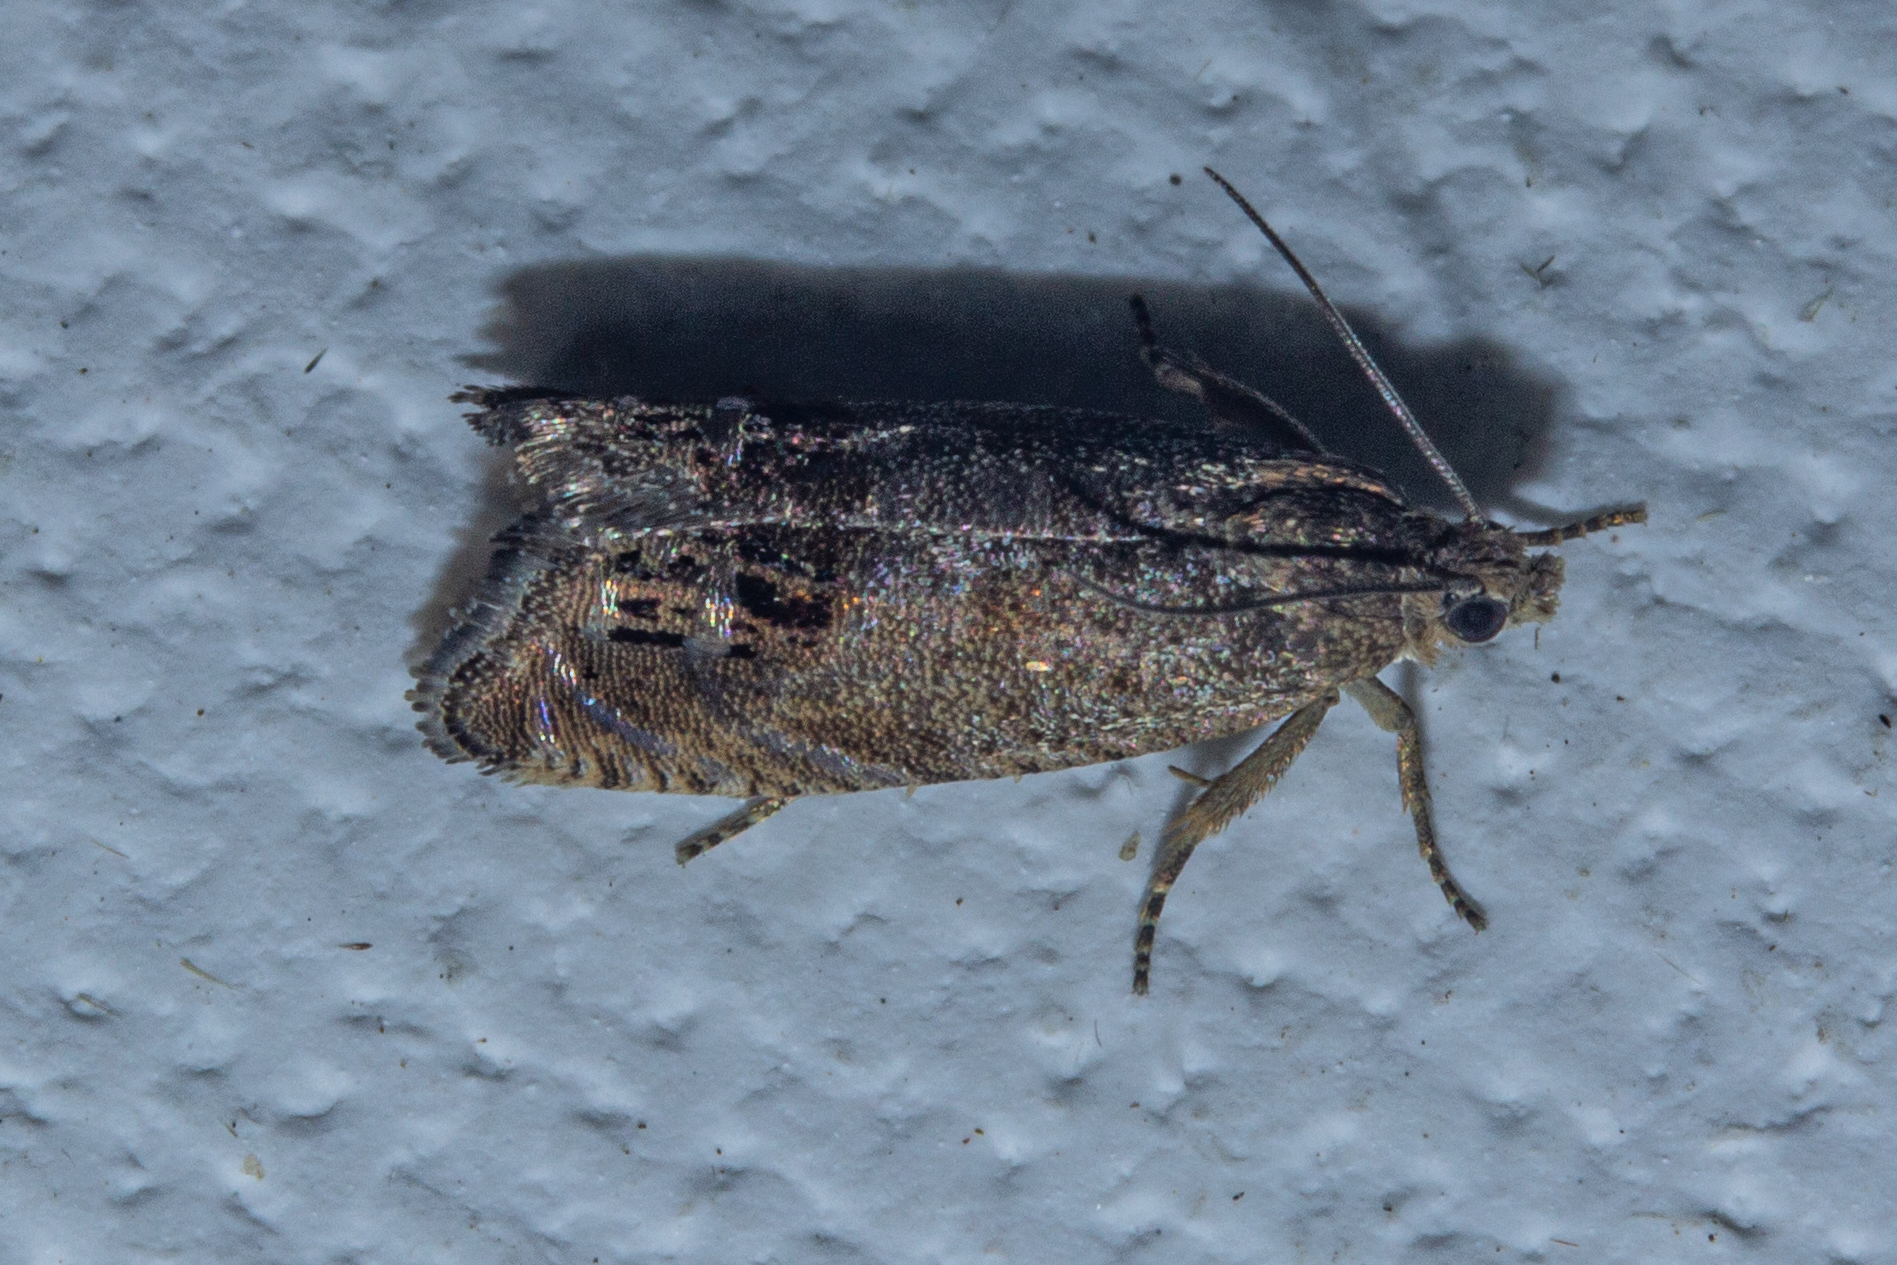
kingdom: Animalia
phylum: Arthropoda
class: Insecta
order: Lepidoptera
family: Tortricidae
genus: Cydia
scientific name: Cydia succedana
